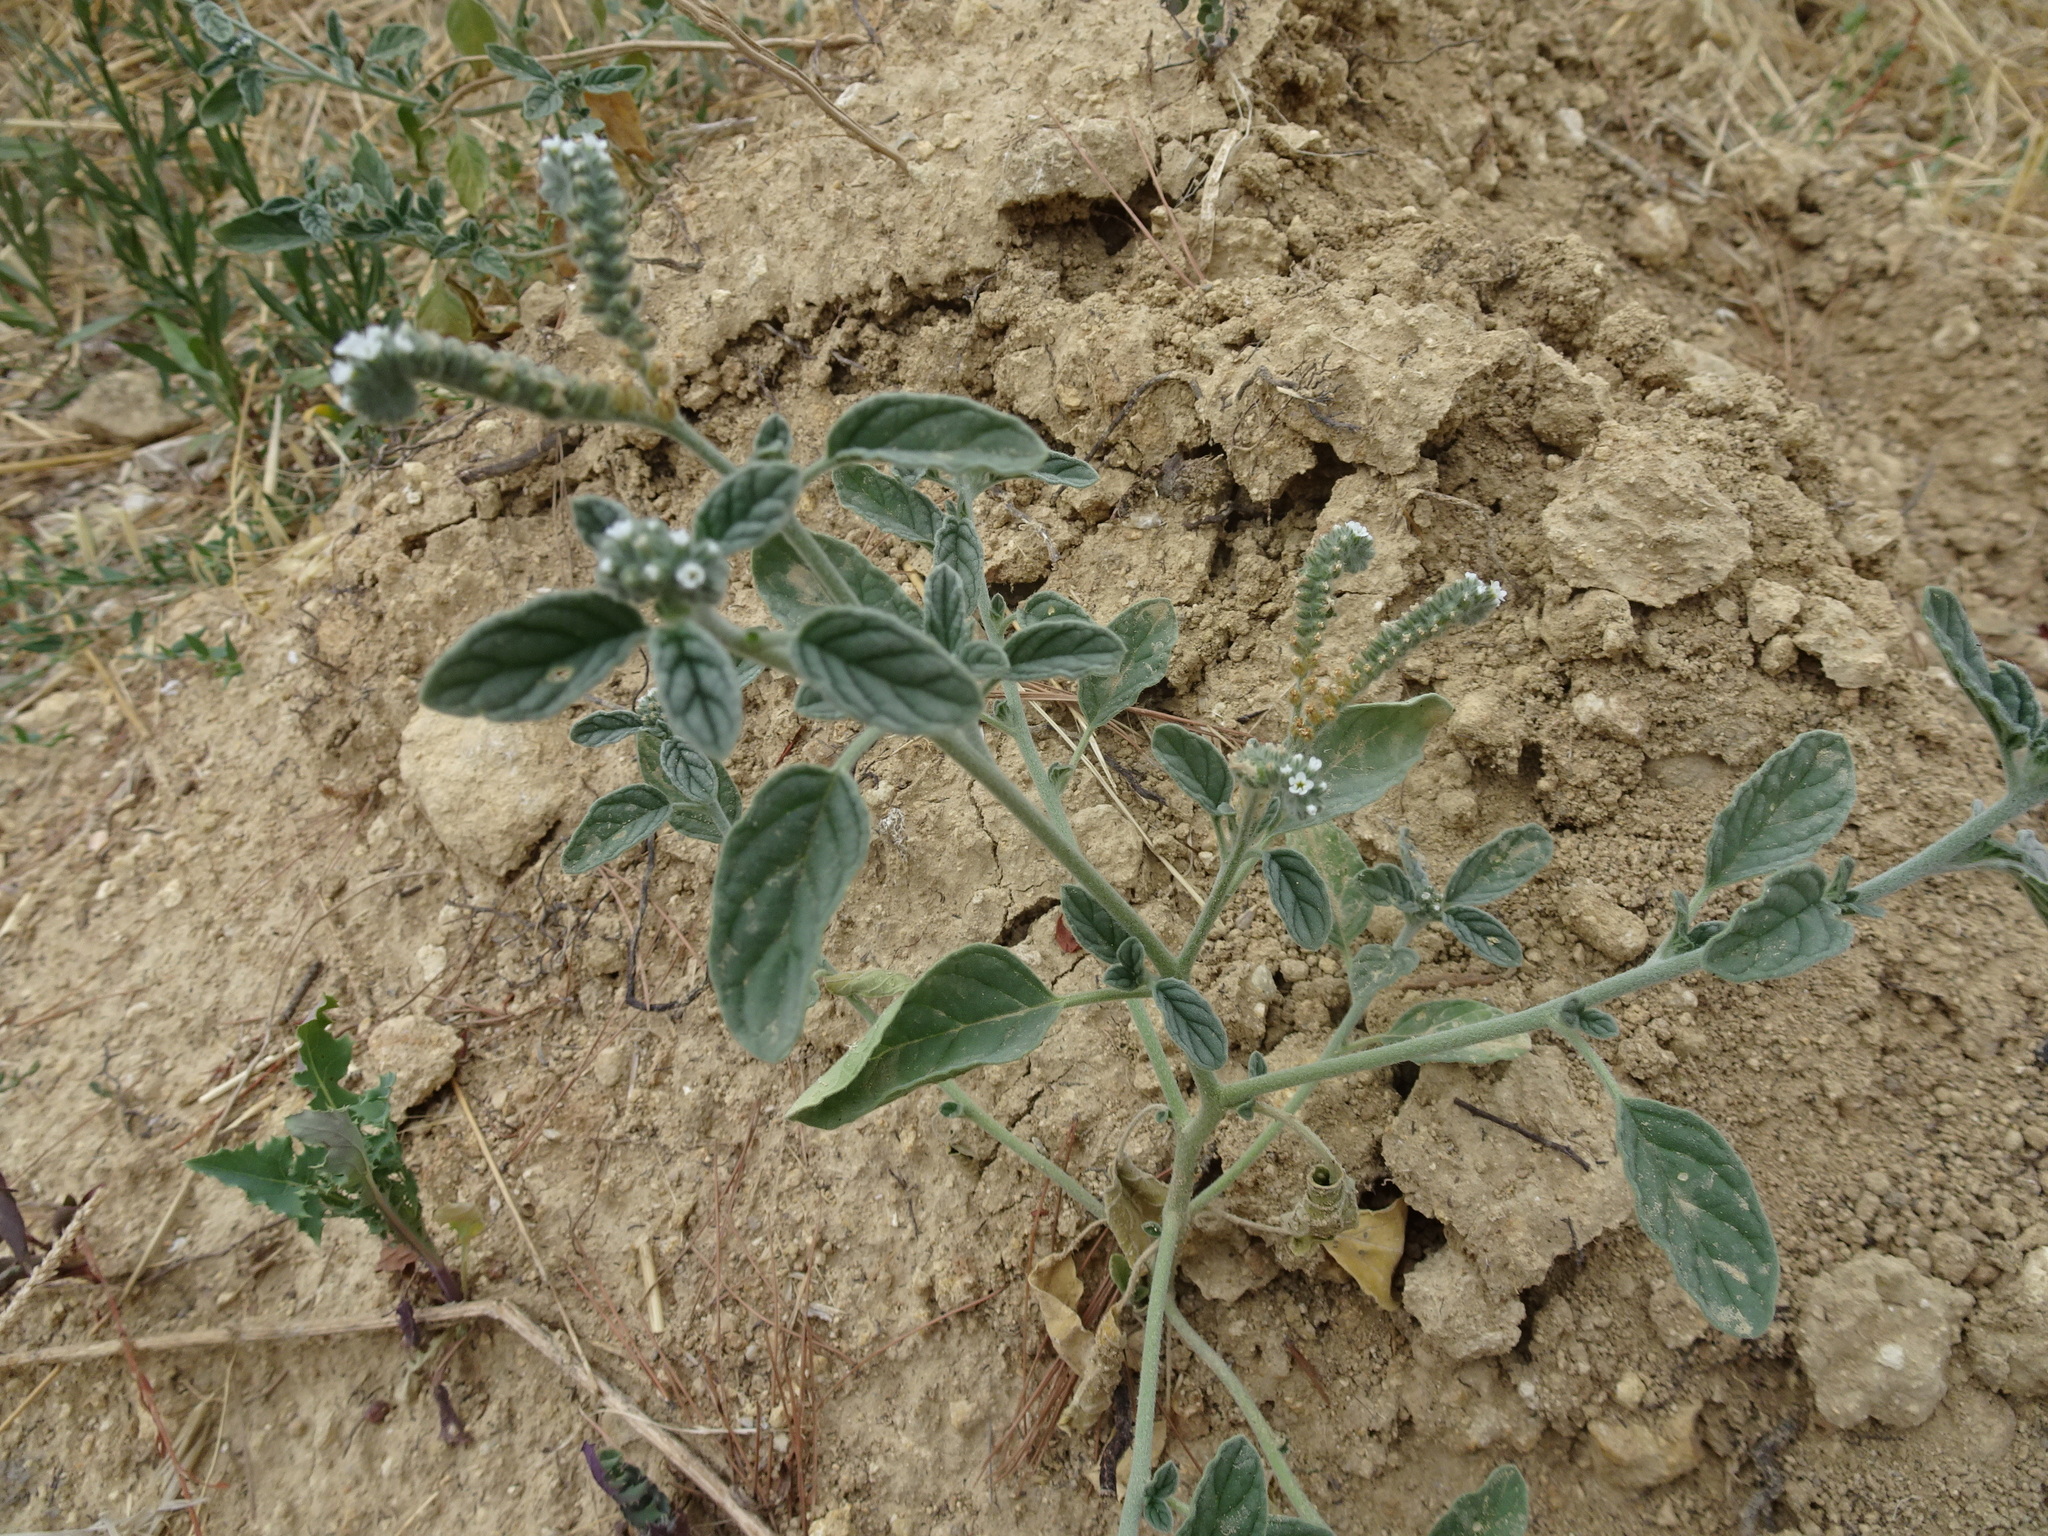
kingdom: Plantae
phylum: Tracheophyta
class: Magnoliopsida
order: Boraginales
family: Heliotropiaceae
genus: Heliotropium
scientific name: Heliotropium europaeum
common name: European heliotrope
